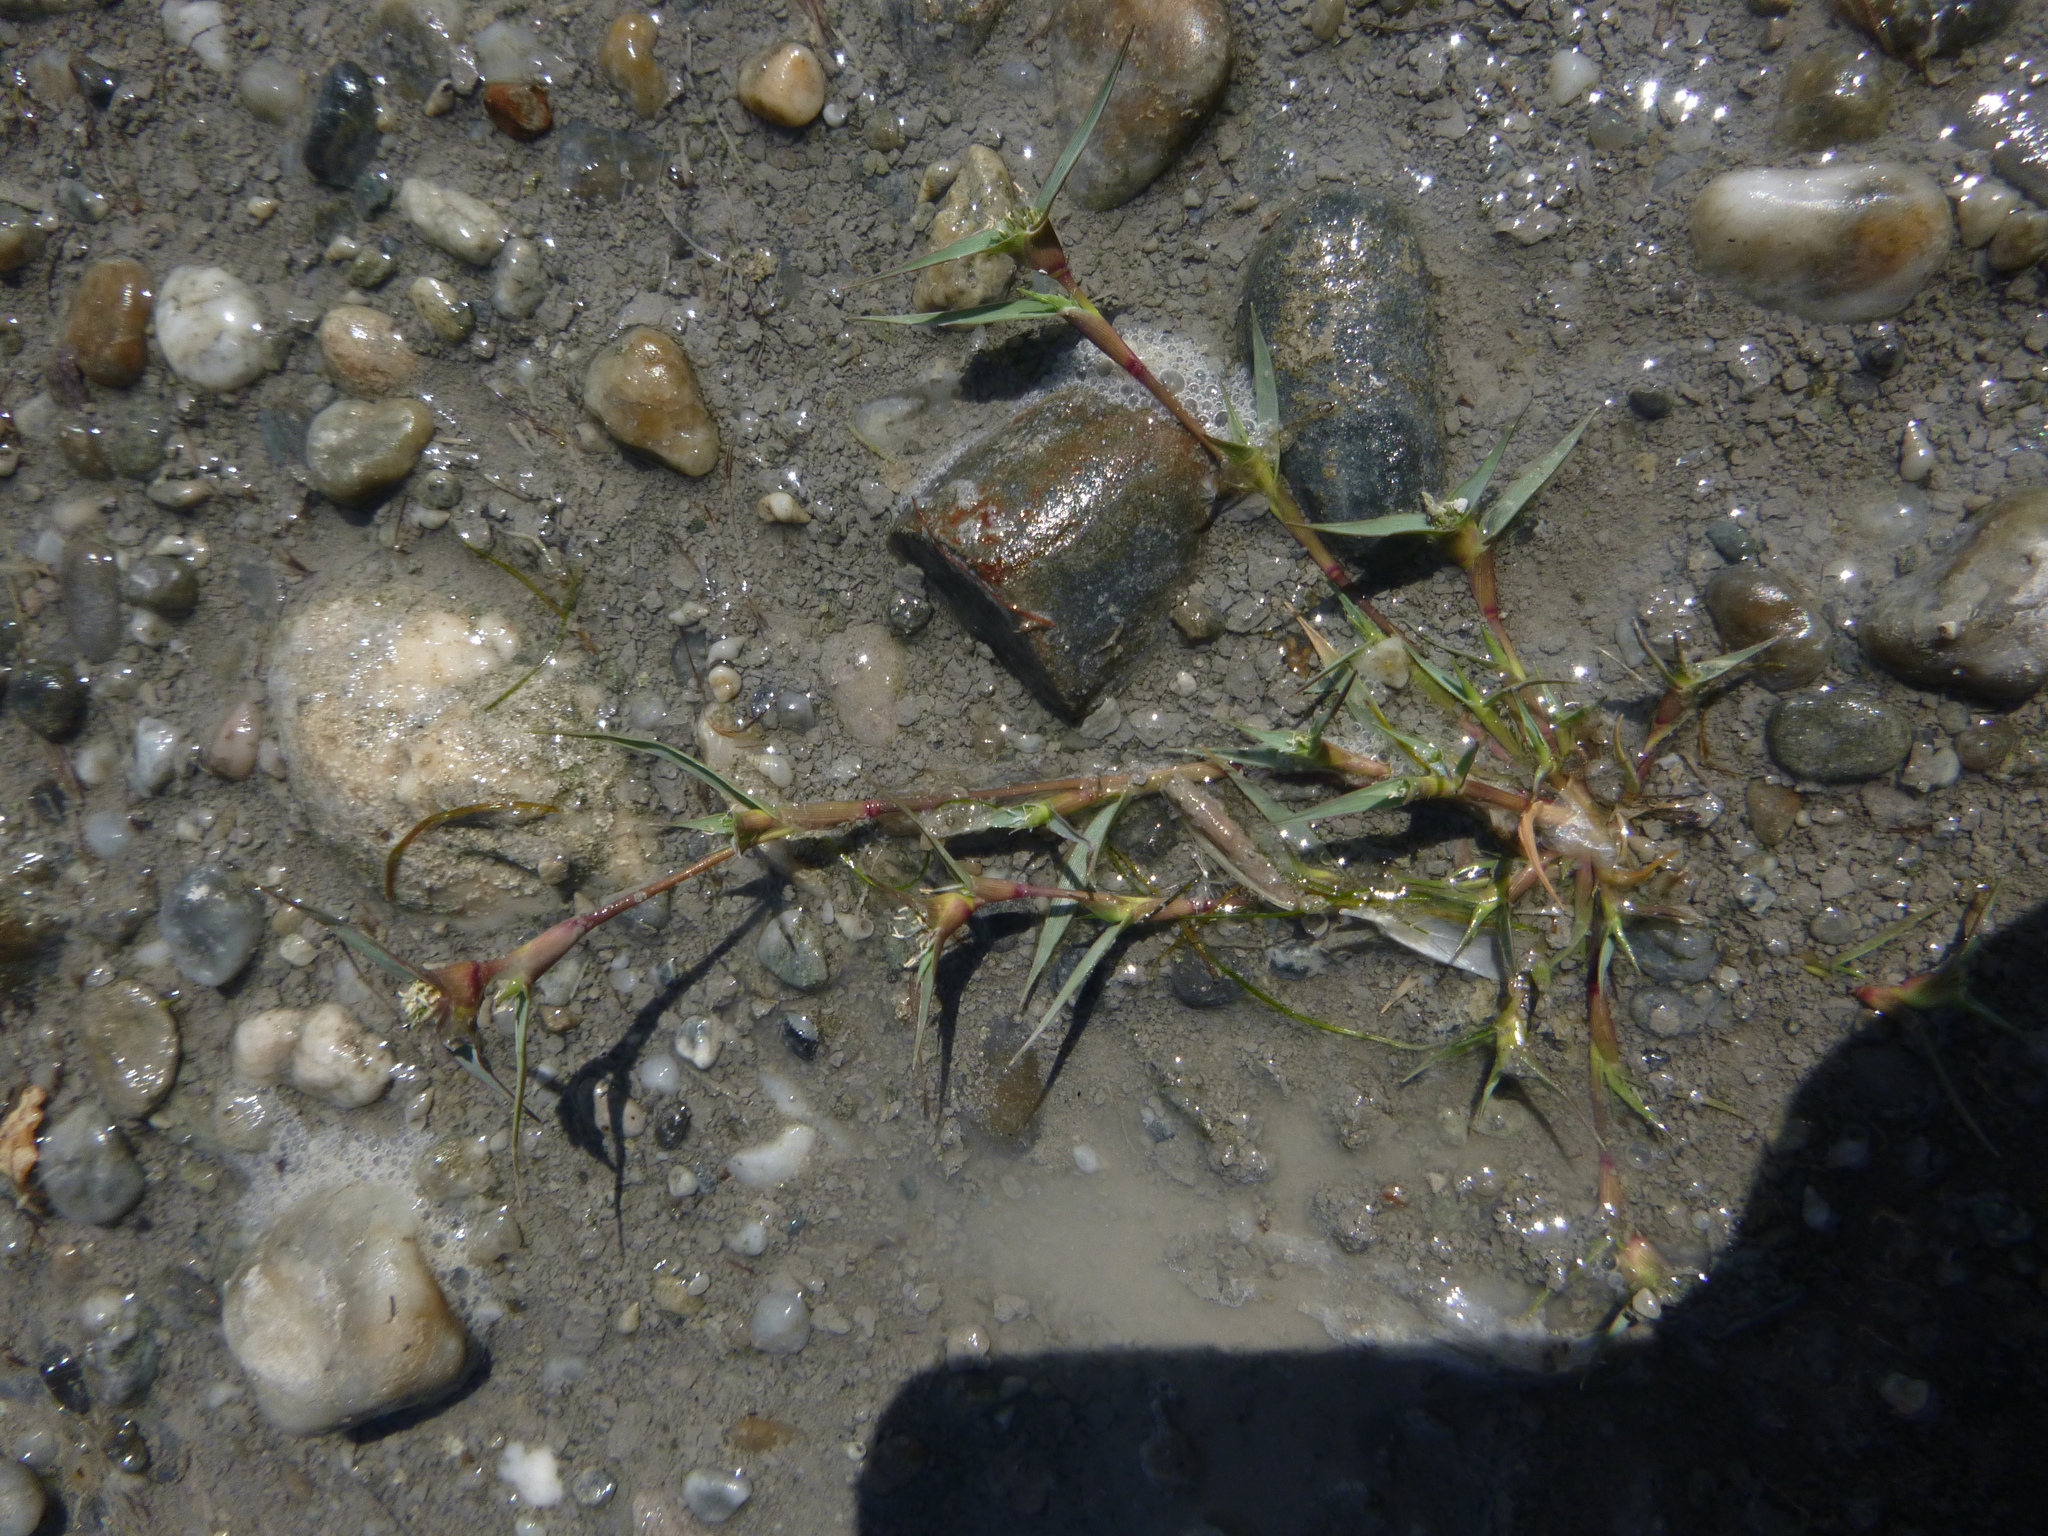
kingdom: Plantae
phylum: Tracheophyta
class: Liliopsida
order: Poales
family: Poaceae
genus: Sporobolus
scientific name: Sporobolus aculeatus
